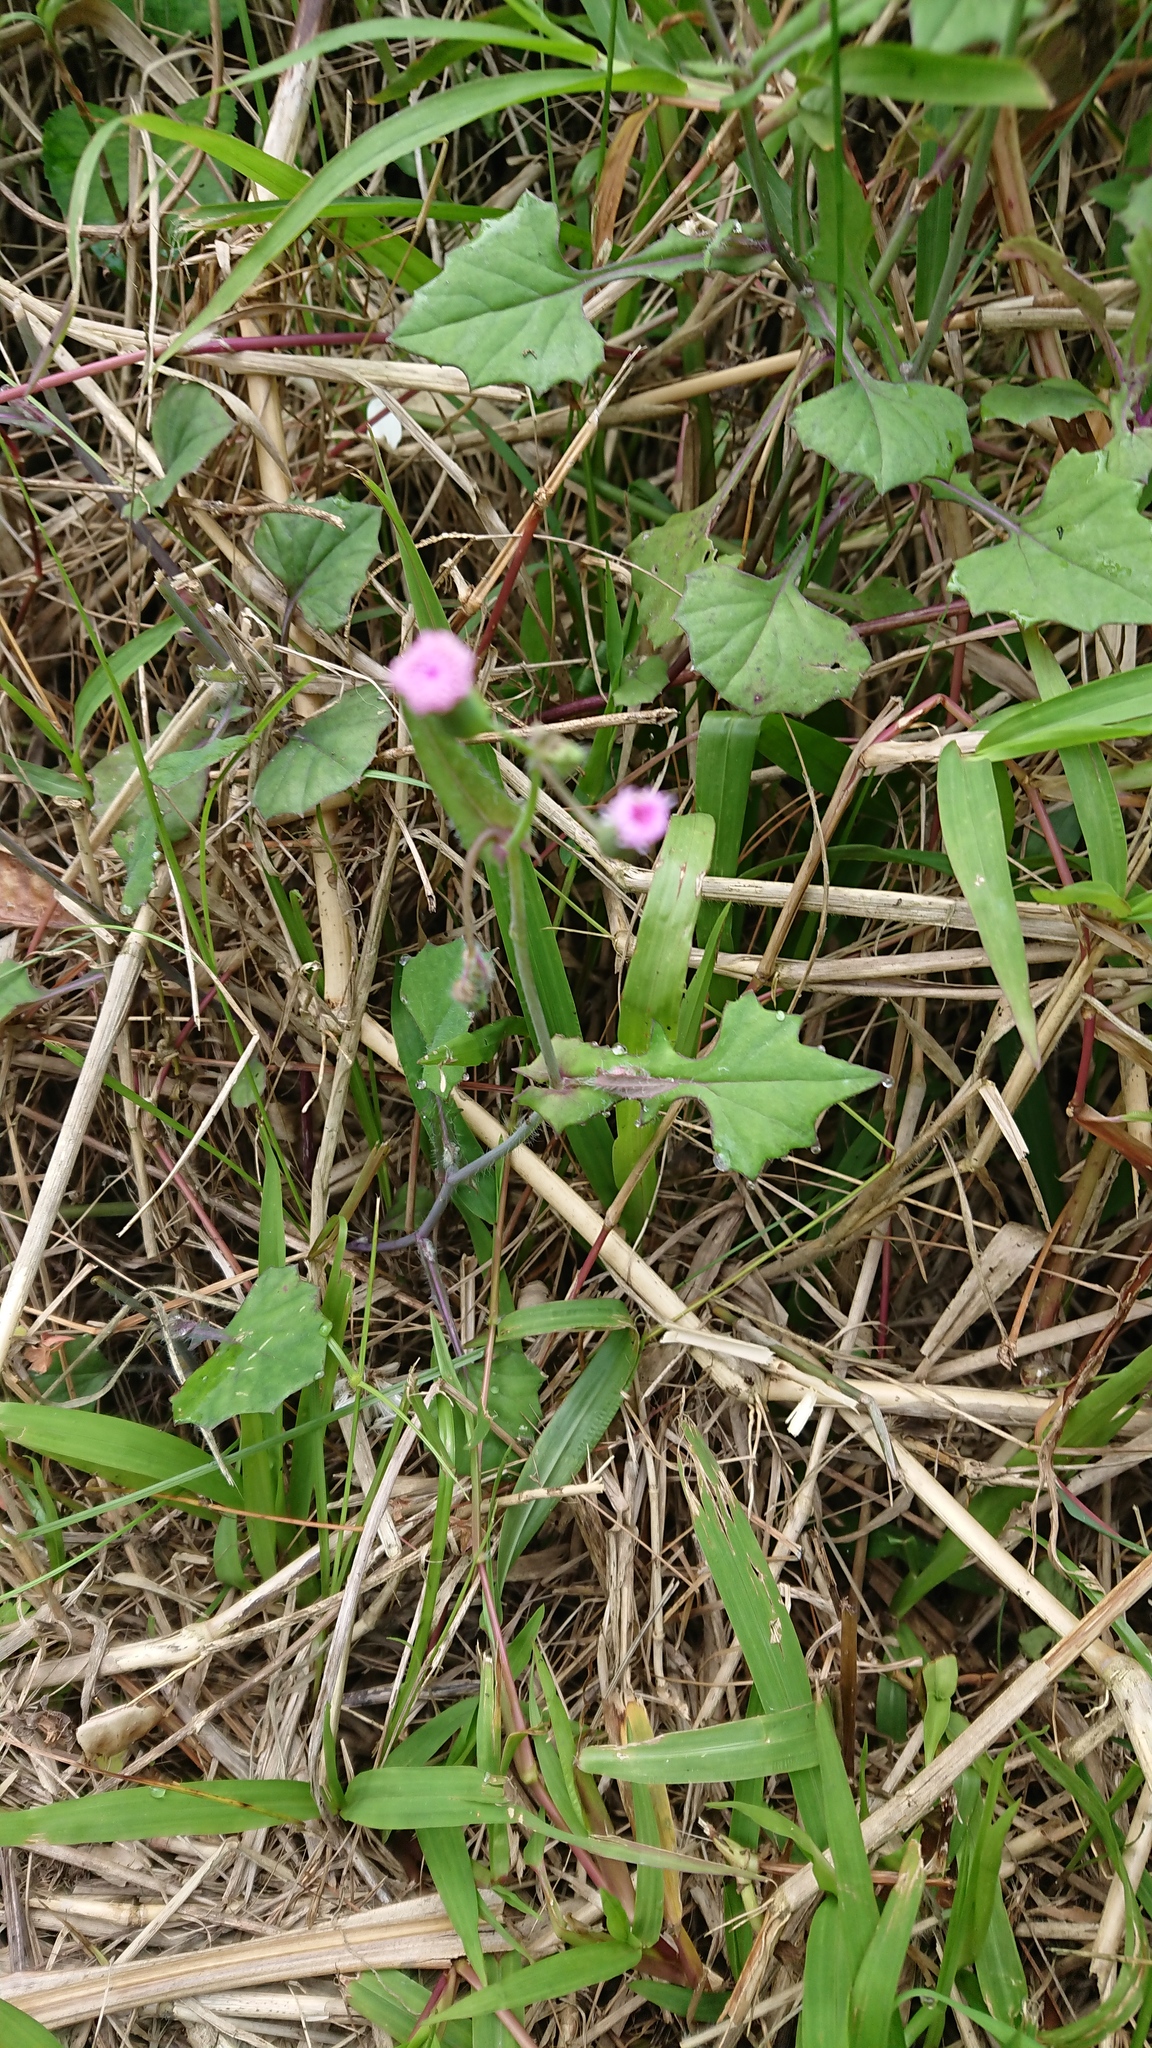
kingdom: Plantae
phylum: Tracheophyta
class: Magnoliopsida
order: Asterales
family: Asteraceae
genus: Emilia
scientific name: Emilia javanica
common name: Tassel-flower
